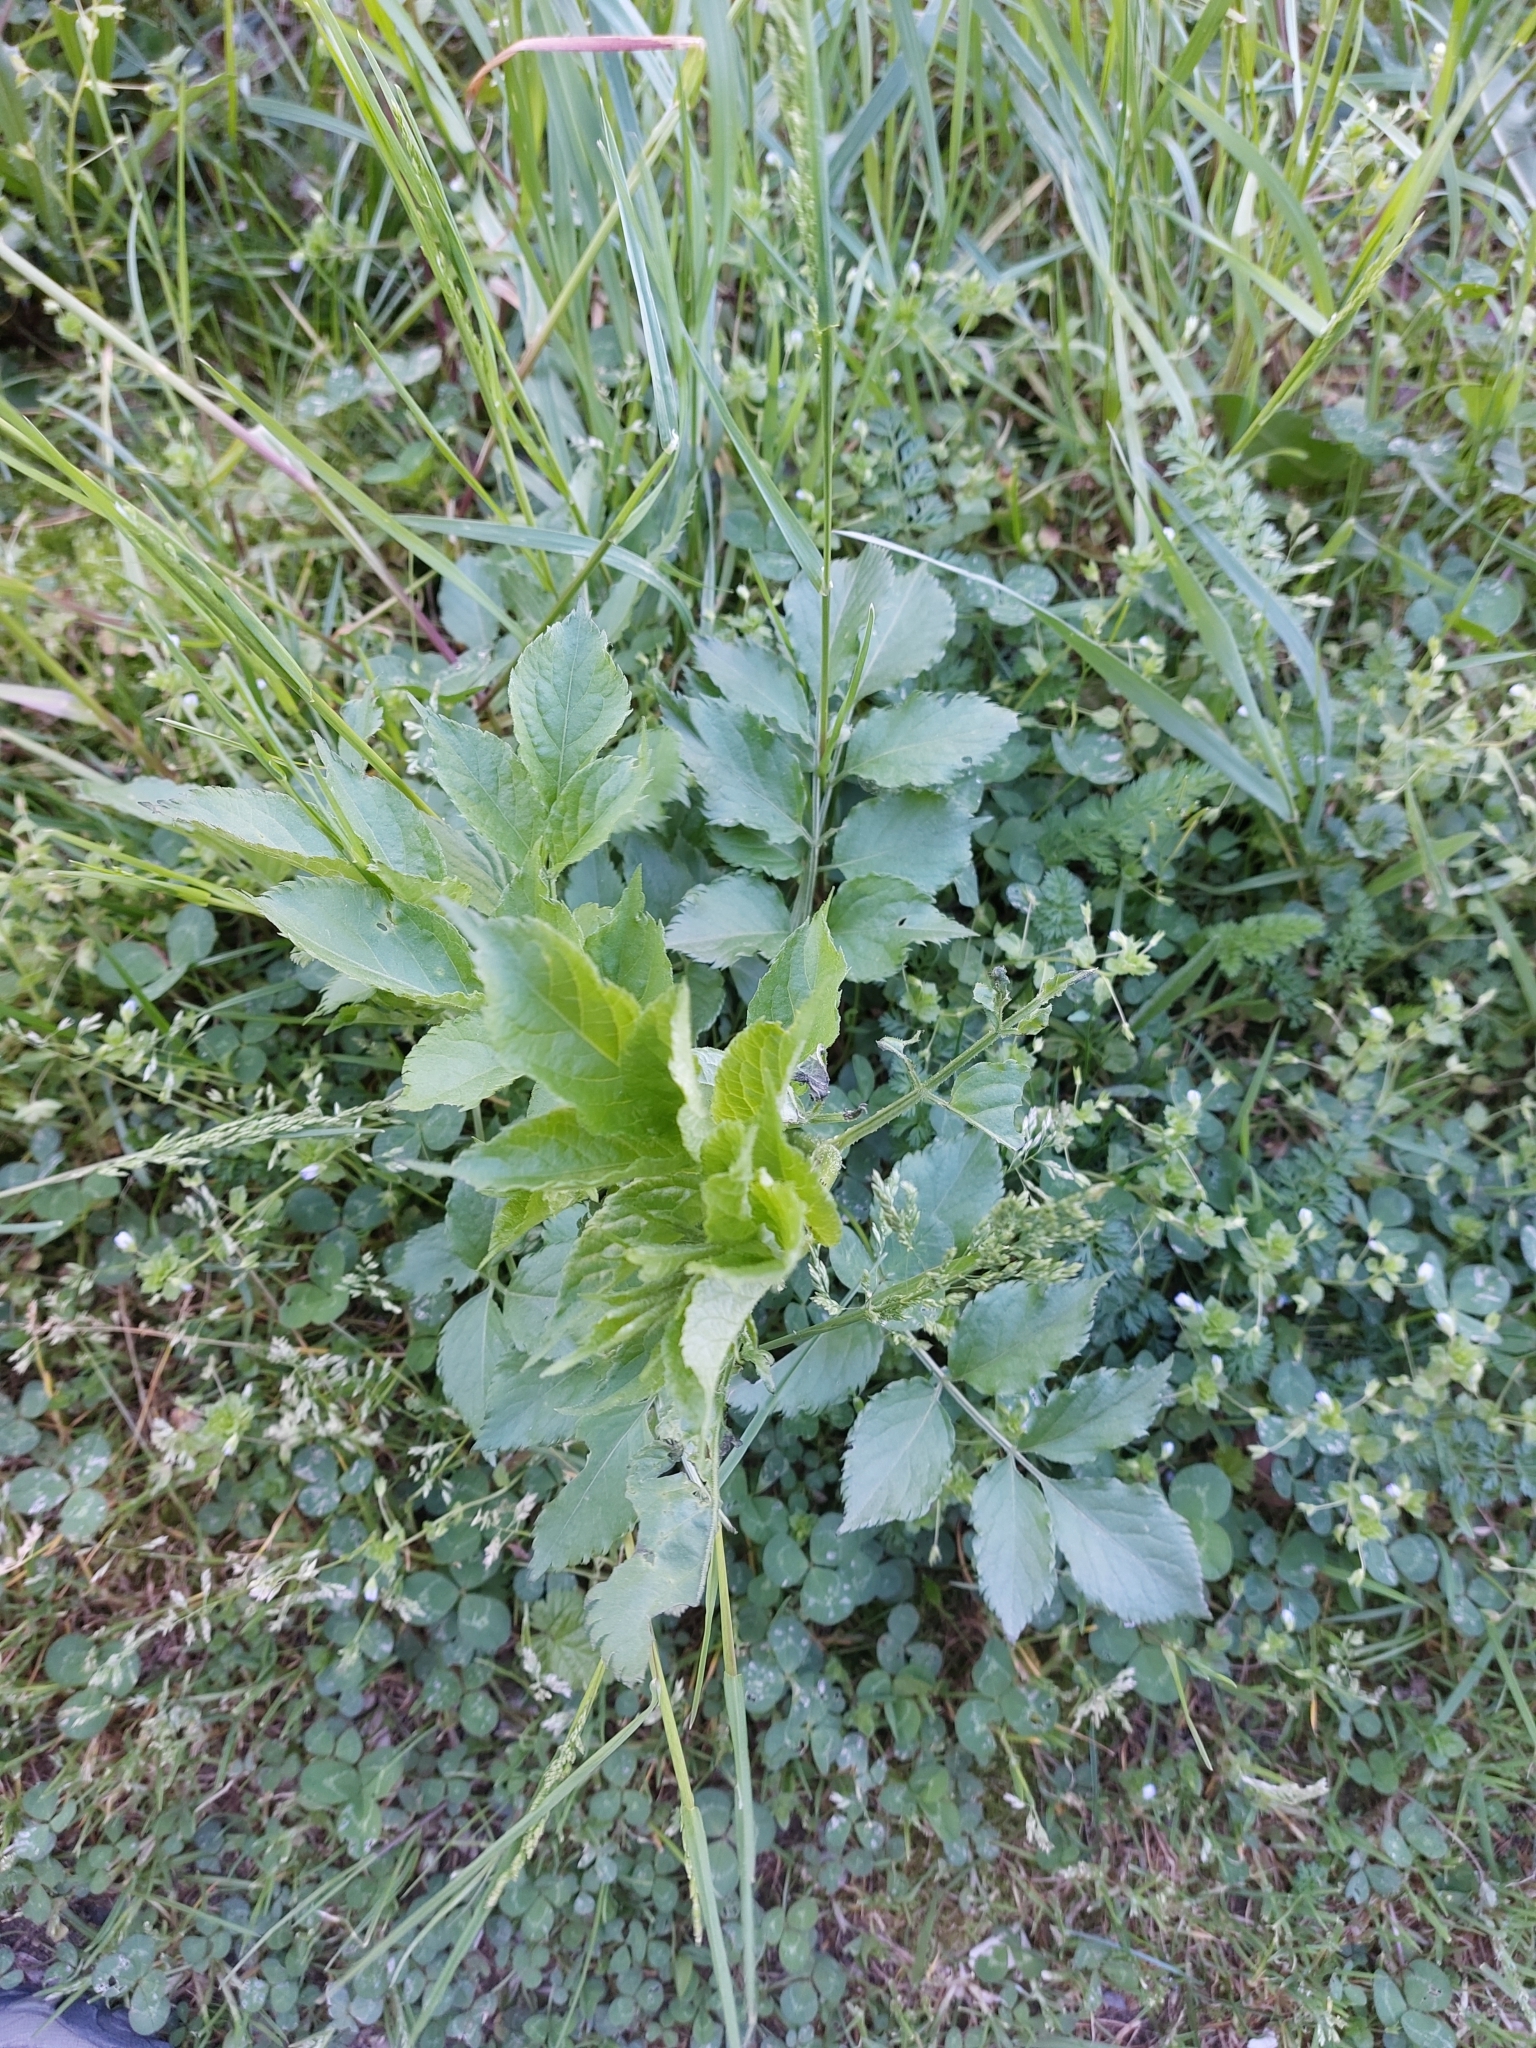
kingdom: Plantae
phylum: Tracheophyta
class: Magnoliopsida
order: Dipsacales
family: Viburnaceae
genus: Sambucus
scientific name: Sambucus nigra
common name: Elder
